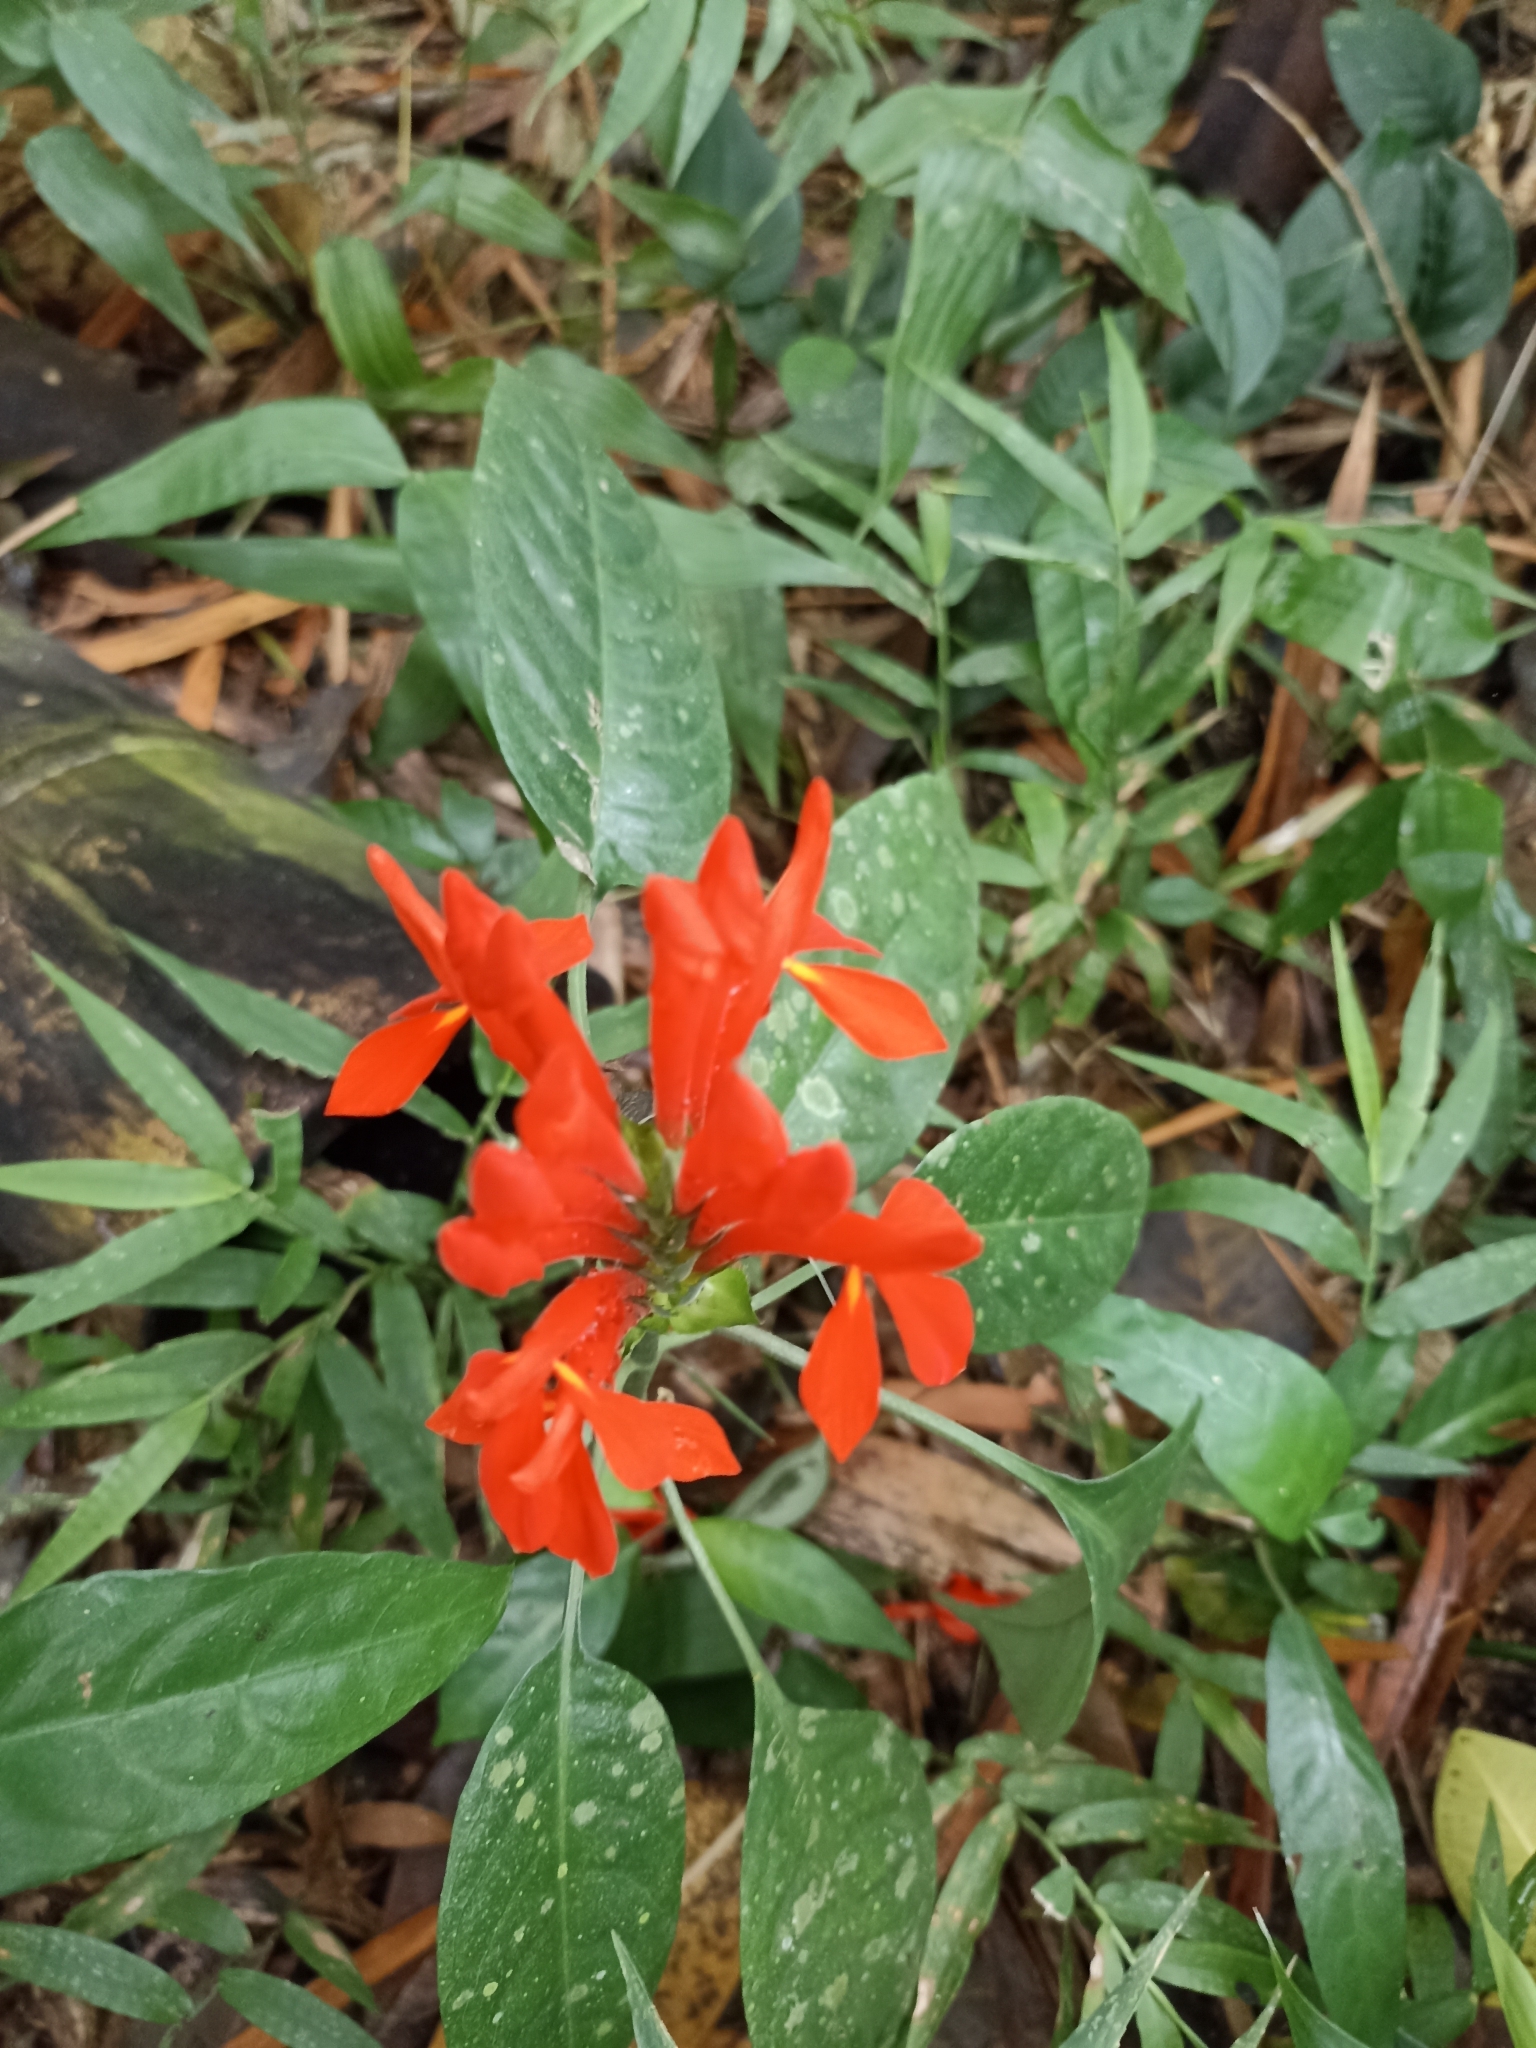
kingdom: Plantae
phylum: Tracheophyta
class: Magnoliopsida
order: Lamiales
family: Acanthaceae
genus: Aphelandra
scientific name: Aphelandra aurantiaca
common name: Fiery spike
